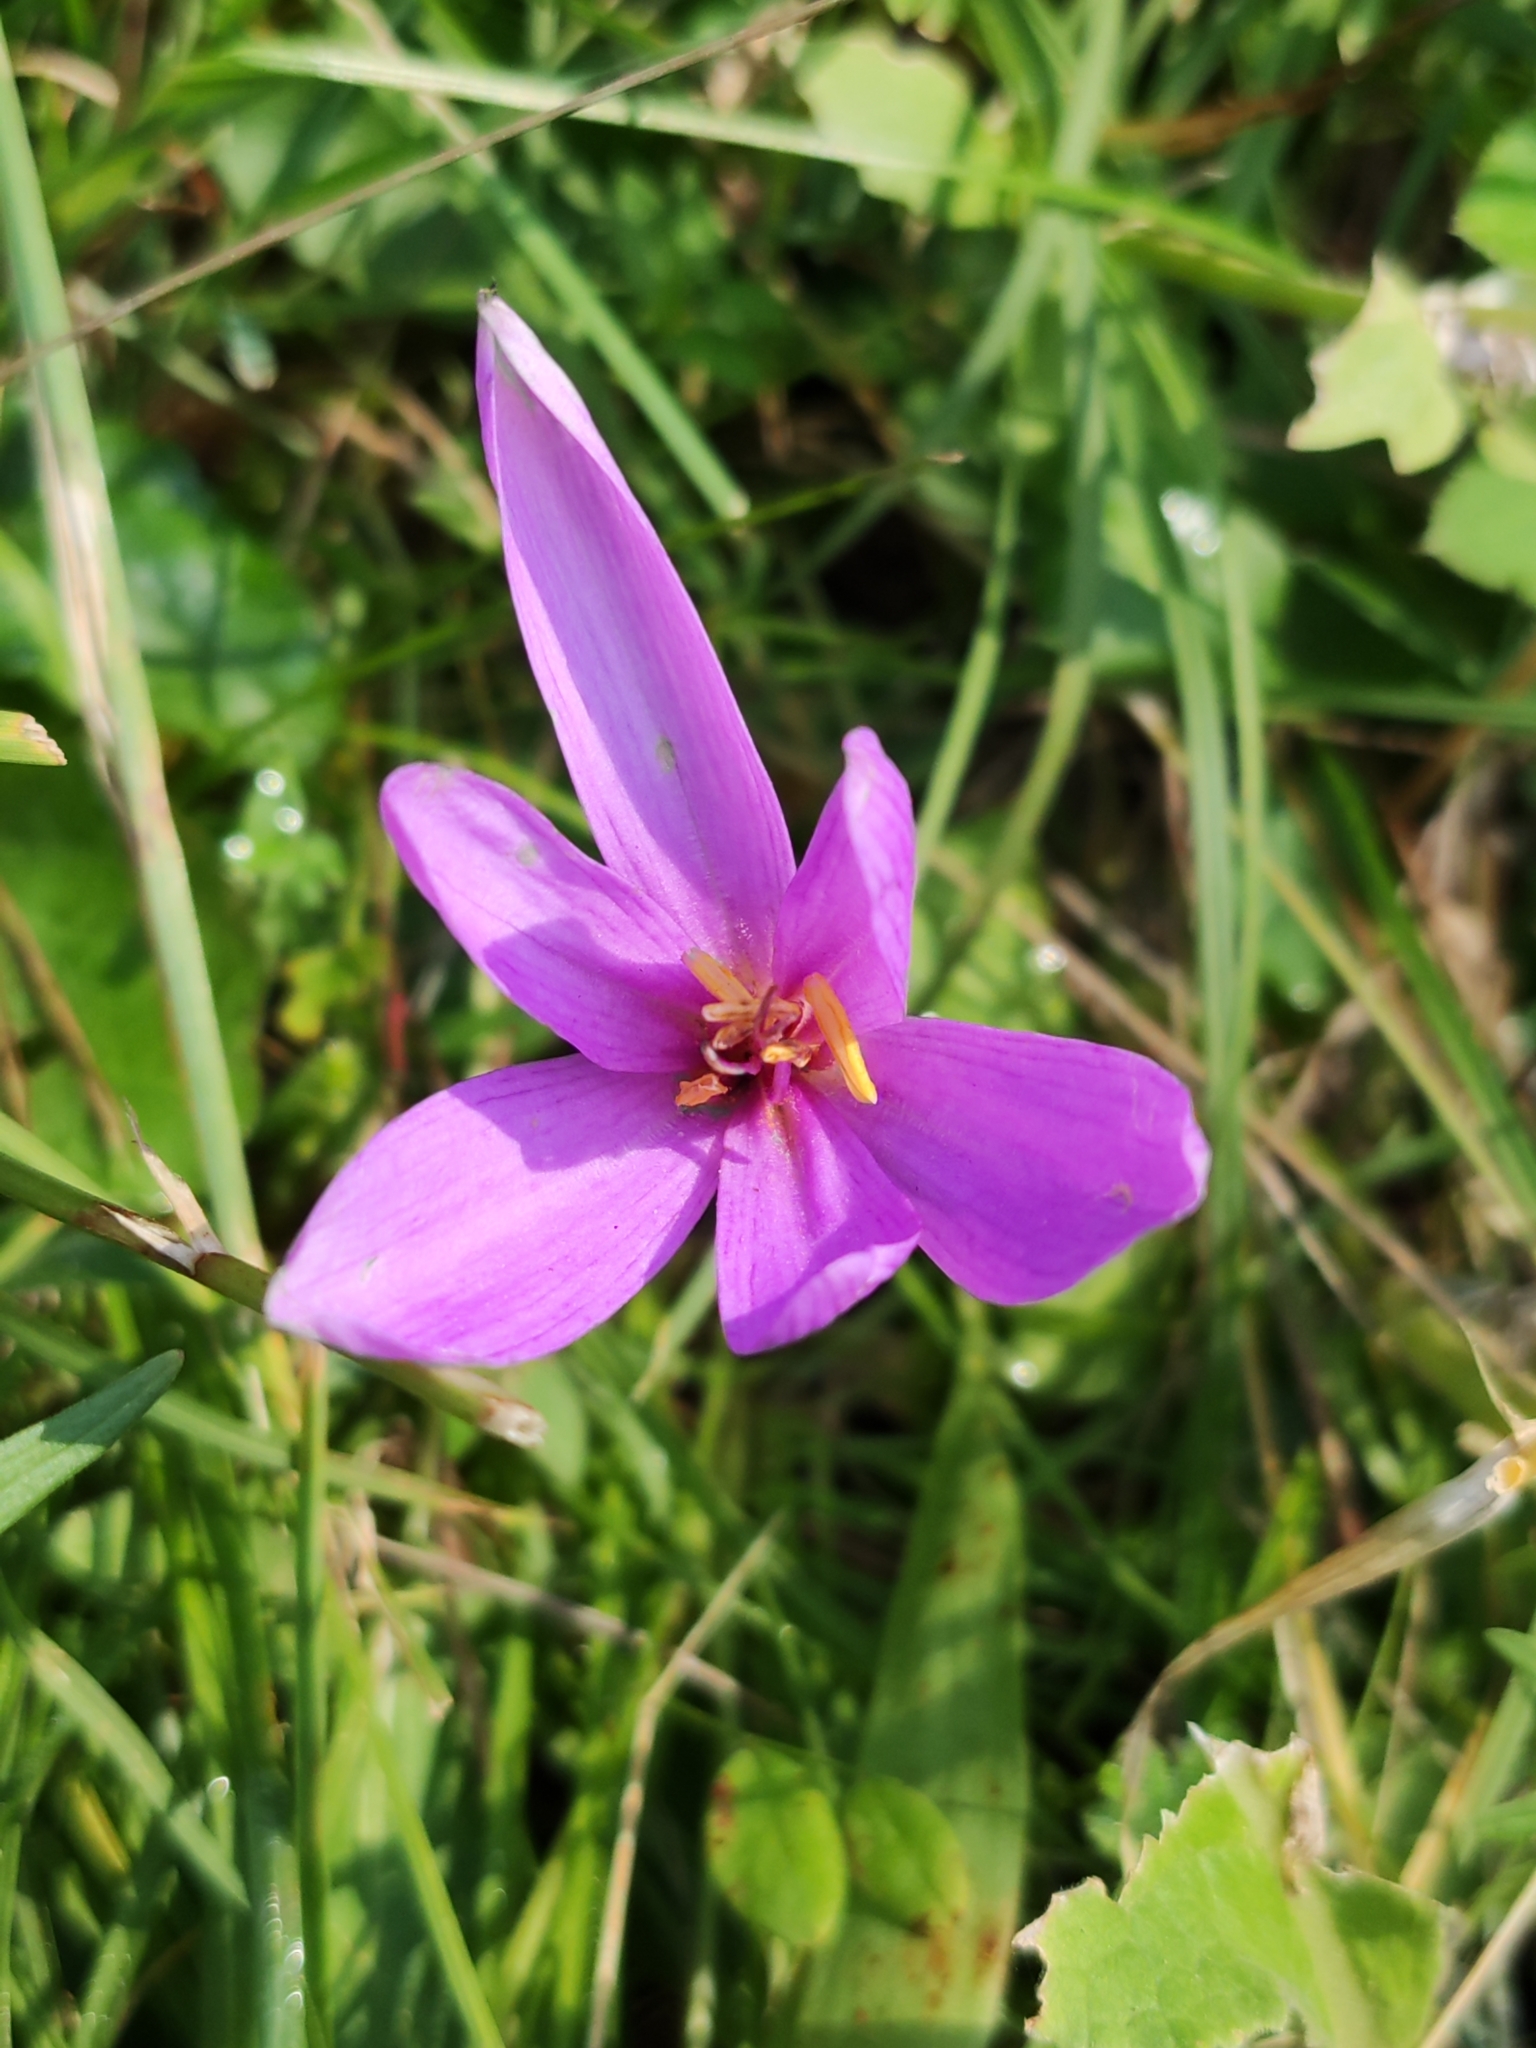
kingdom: Plantae
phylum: Tracheophyta
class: Liliopsida
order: Liliales
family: Colchicaceae
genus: Colchicum
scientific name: Colchicum autumnale
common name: Autumn crocus
